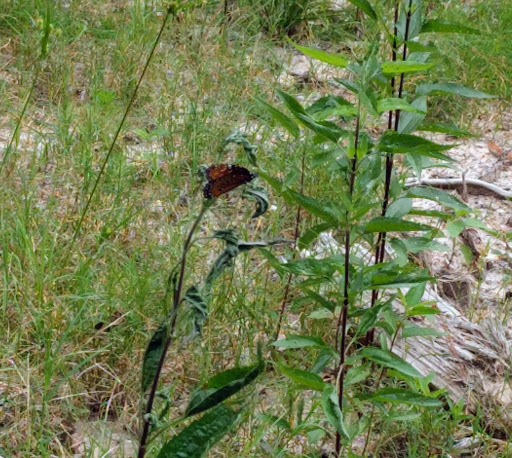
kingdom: Animalia
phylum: Arthropoda
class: Insecta
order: Lepidoptera
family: Nymphalidae
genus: Danaus
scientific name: Danaus gilippus
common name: Queen
